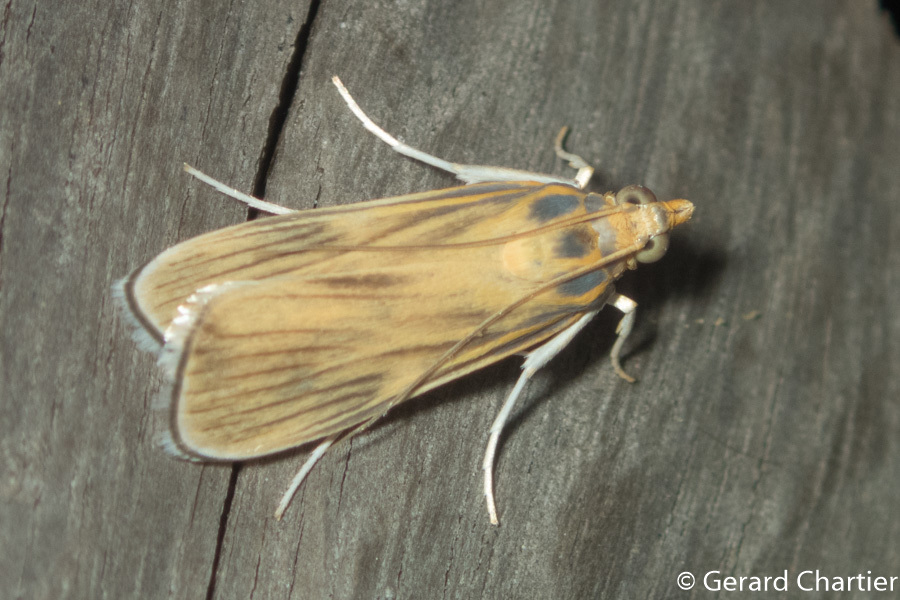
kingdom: Animalia
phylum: Arthropoda
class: Insecta
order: Lepidoptera
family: Crambidae
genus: Tyspanodes
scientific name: Tyspanodes linealis
